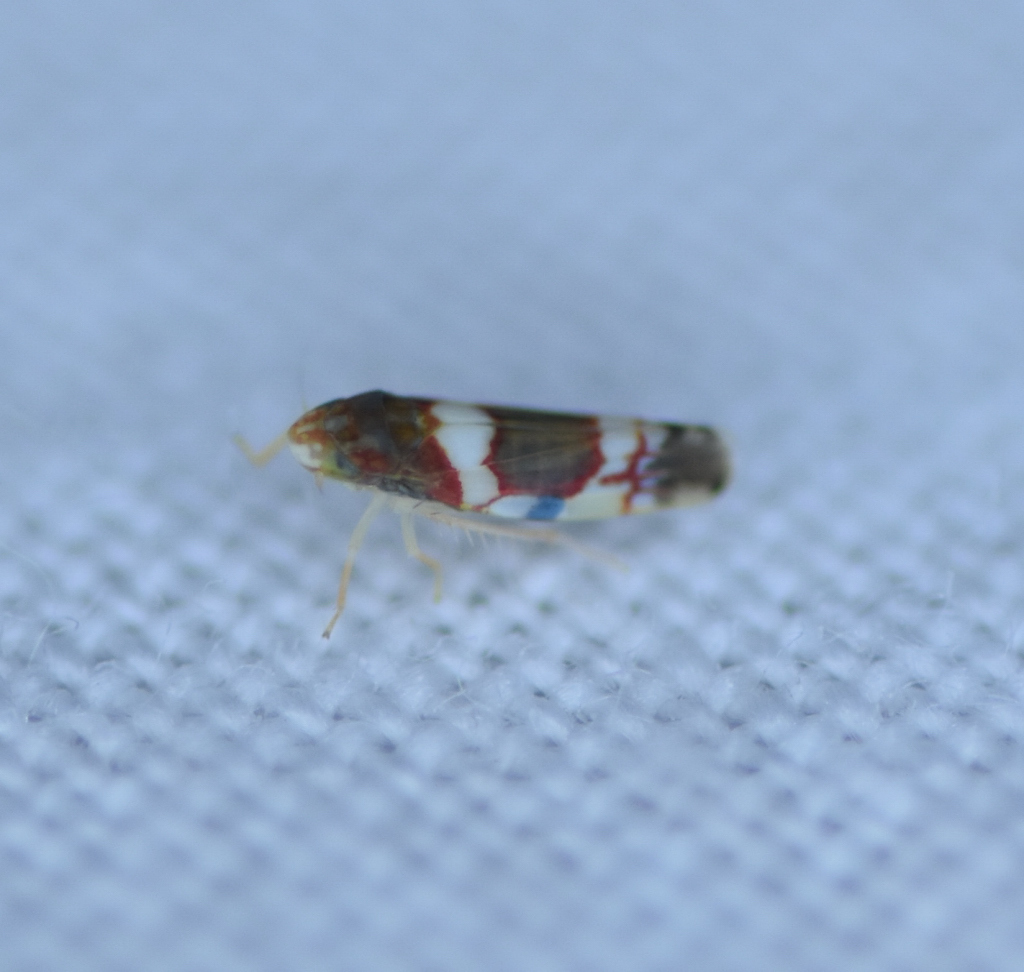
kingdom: Animalia
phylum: Arthropoda
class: Insecta
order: Hemiptera
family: Cicadellidae
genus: Erythroneura
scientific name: Erythroneura vitis
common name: Grapevine leafhopper
